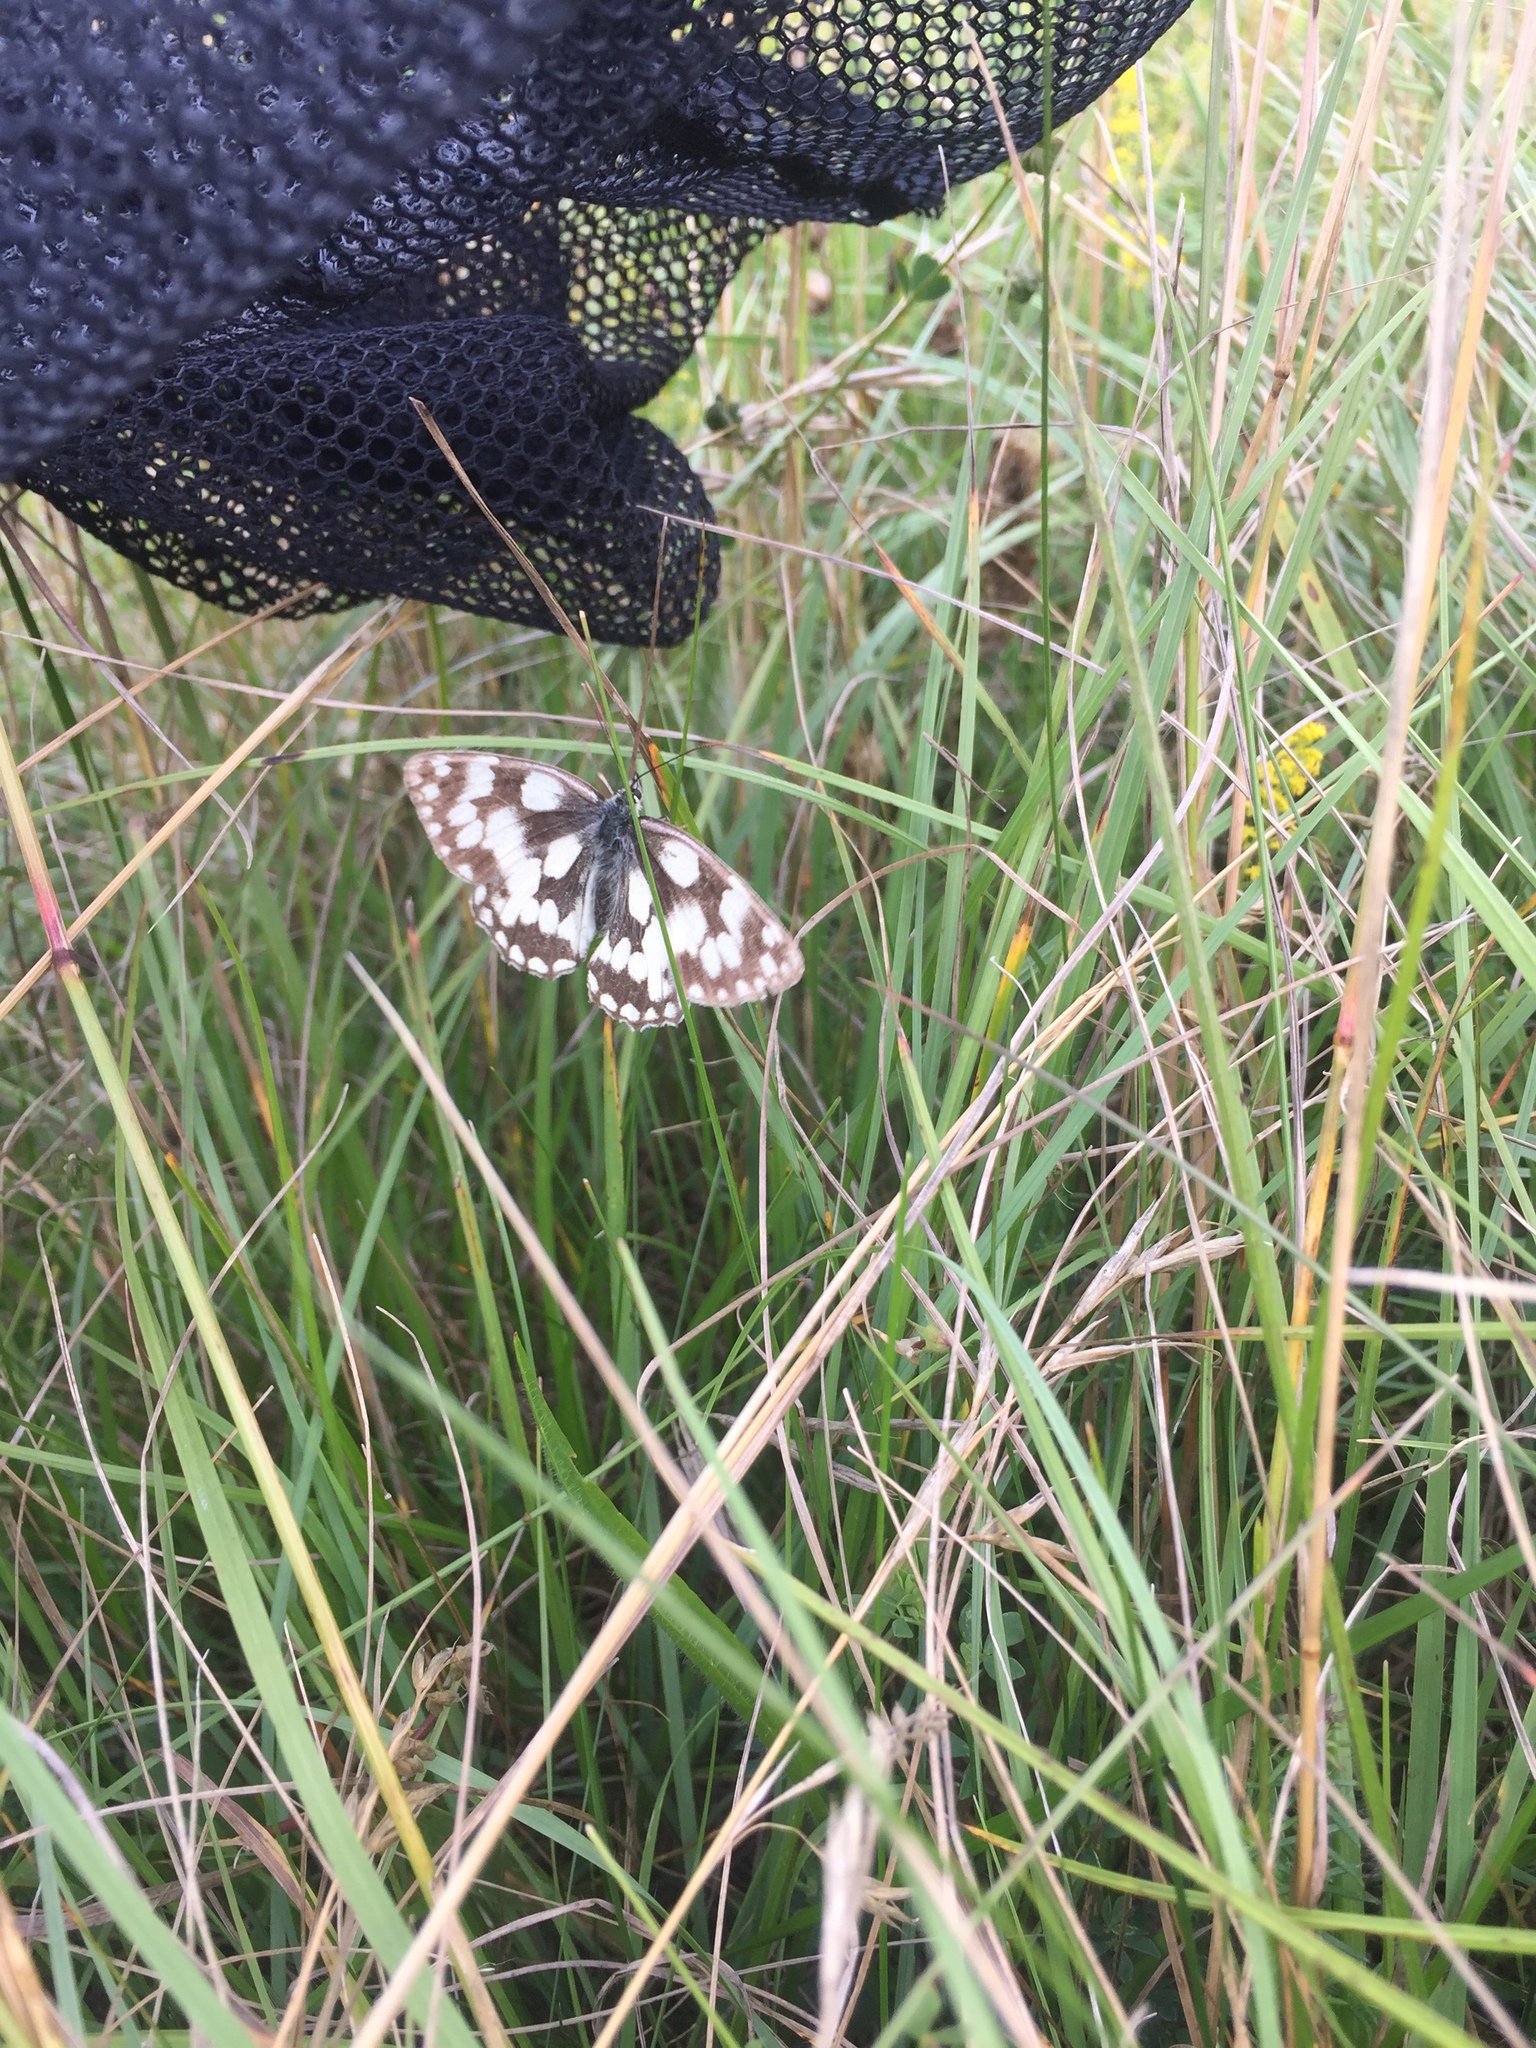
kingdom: Animalia
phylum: Arthropoda
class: Insecta
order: Lepidoptera
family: Nymphalidae
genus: Melanargia
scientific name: Melanargia galathea
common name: Marbled white
